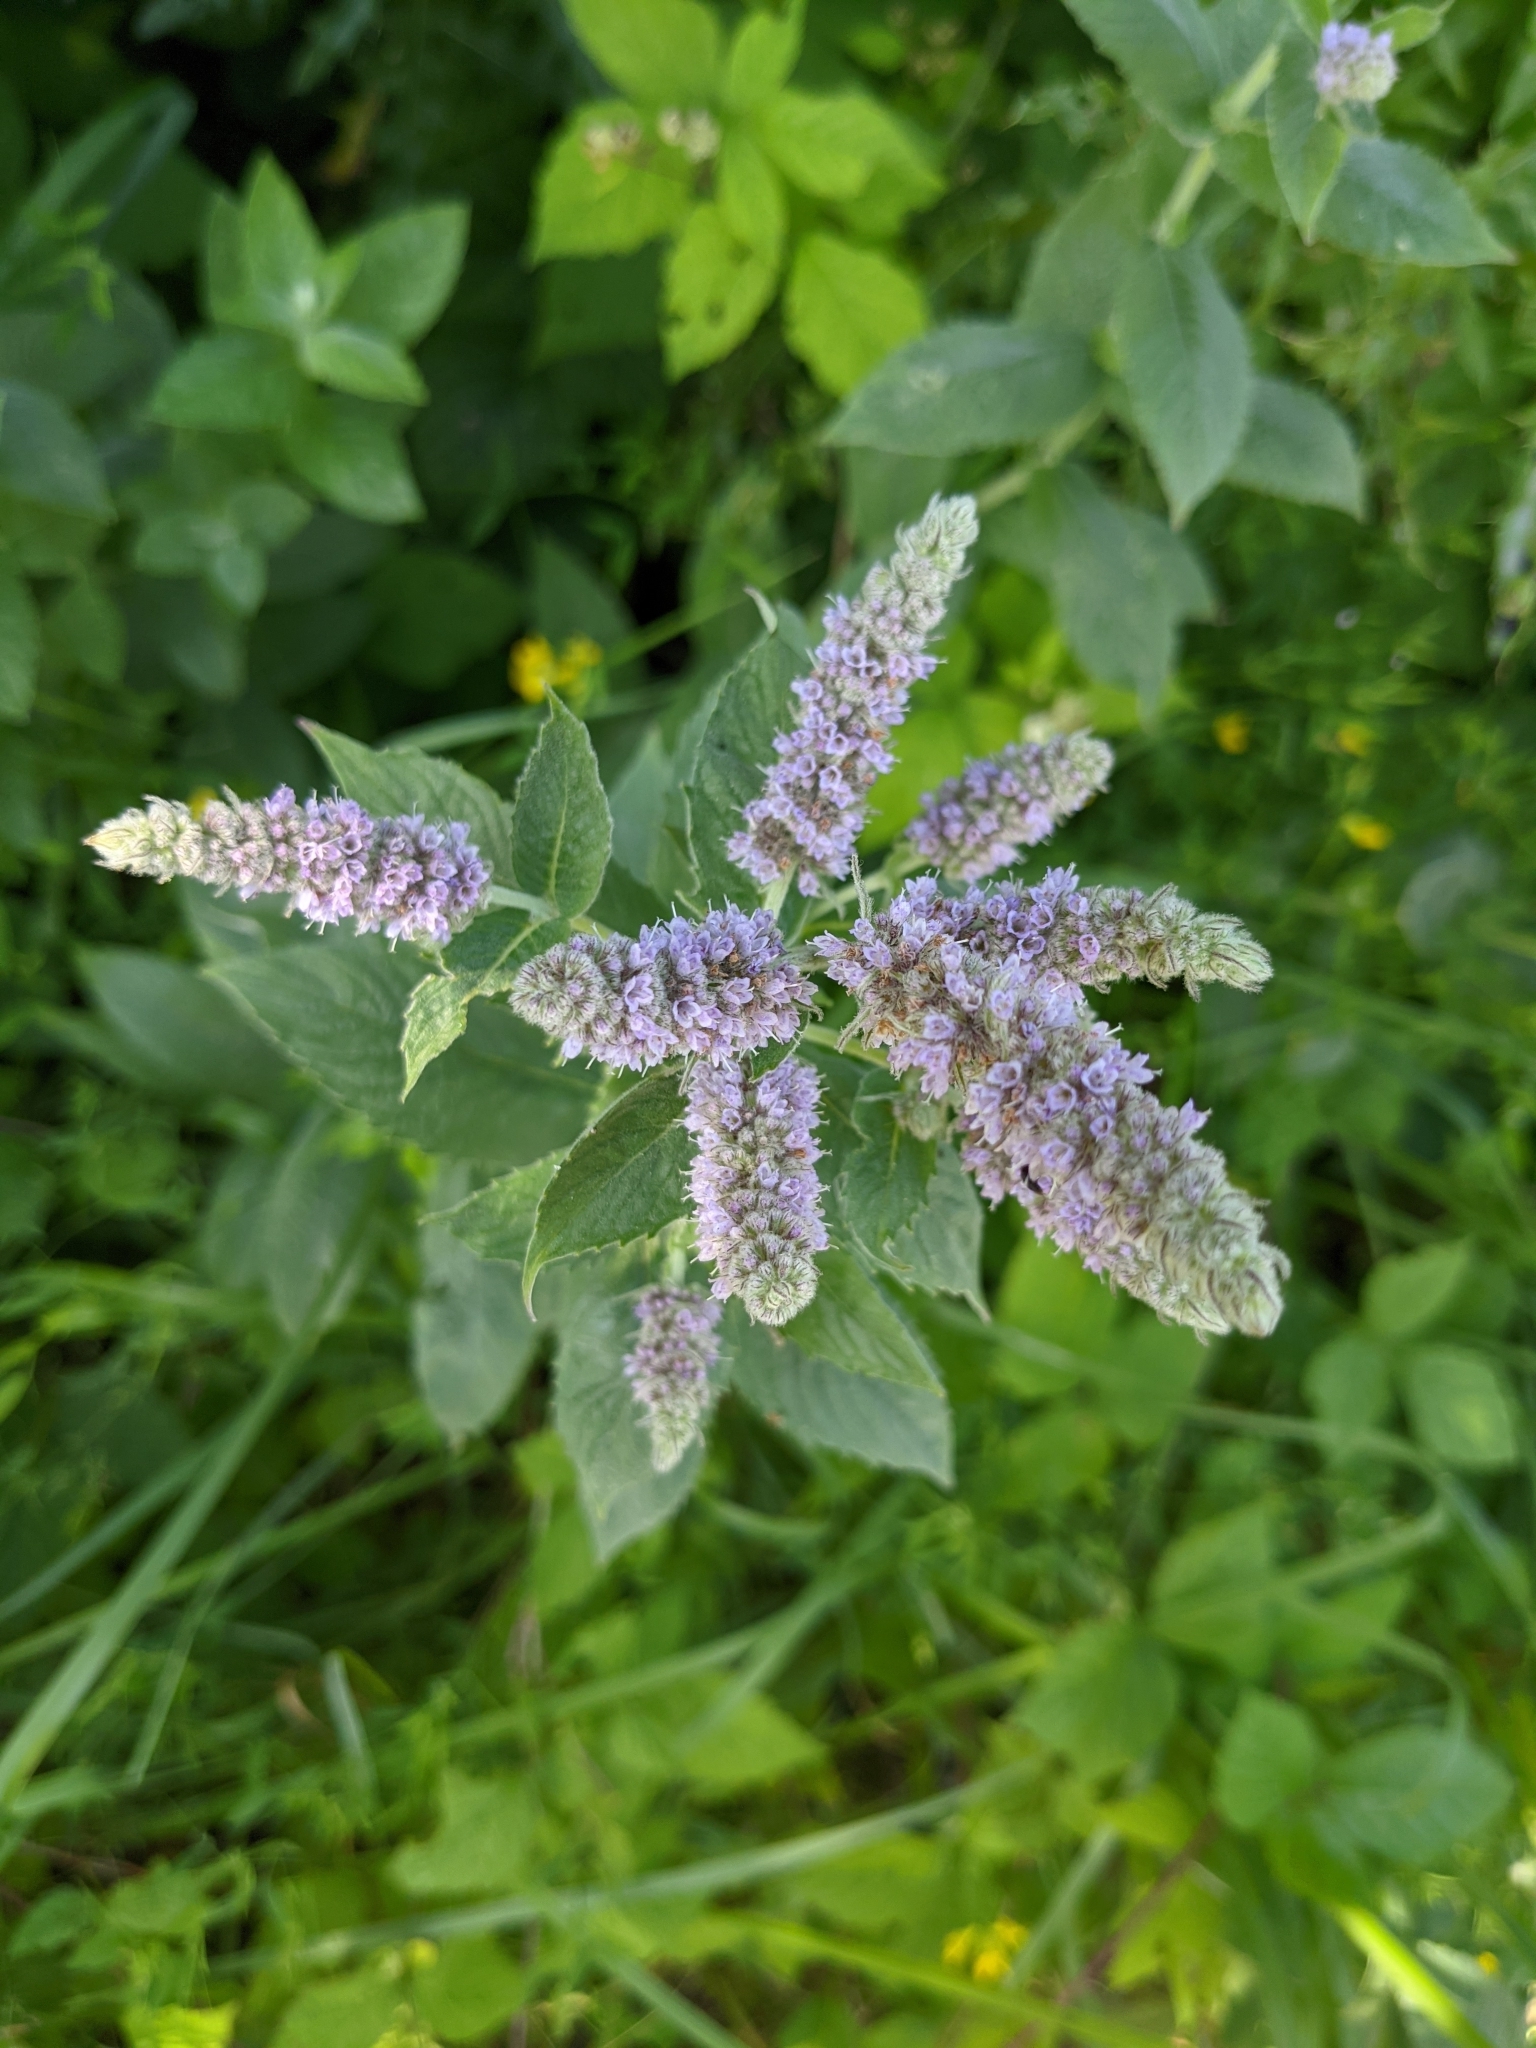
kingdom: Plantae
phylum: Tracheophyta
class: Magnoliopsida
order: Lamiales
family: Lamiaceae
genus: Mentha
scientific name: Mentha longifolia
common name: Horse mint
